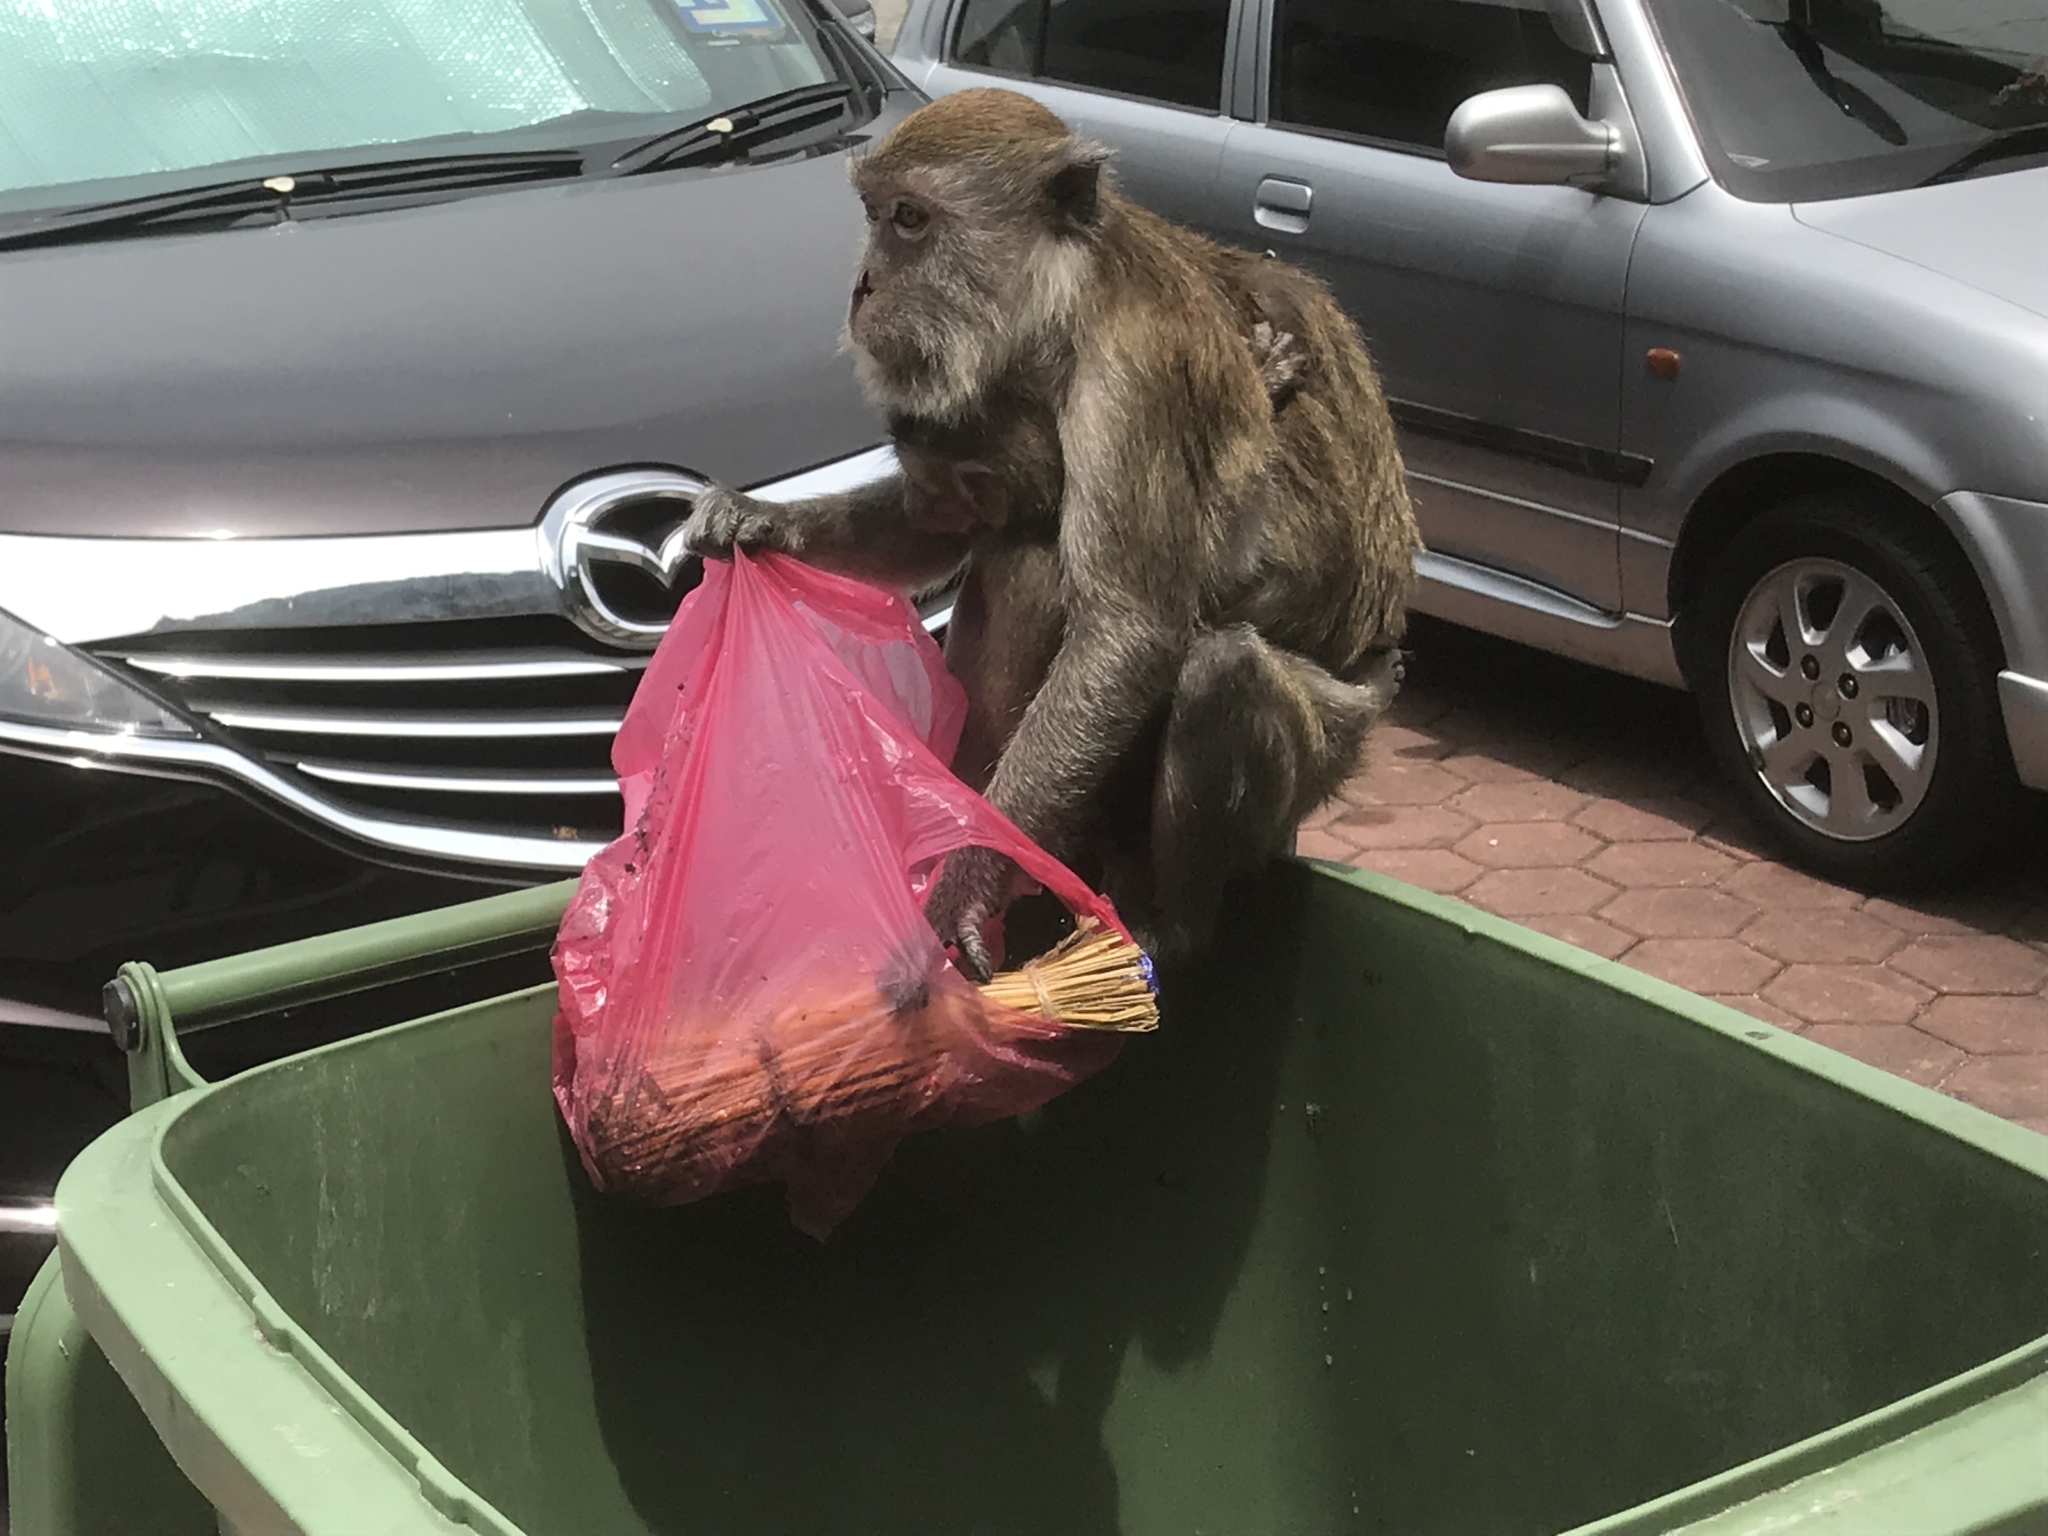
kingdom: Animalia
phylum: Chordata
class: Mammalia
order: Primates
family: Cercopithecidae
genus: Macaca
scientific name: Macaca fascicularis
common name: Crab-eating macaque
